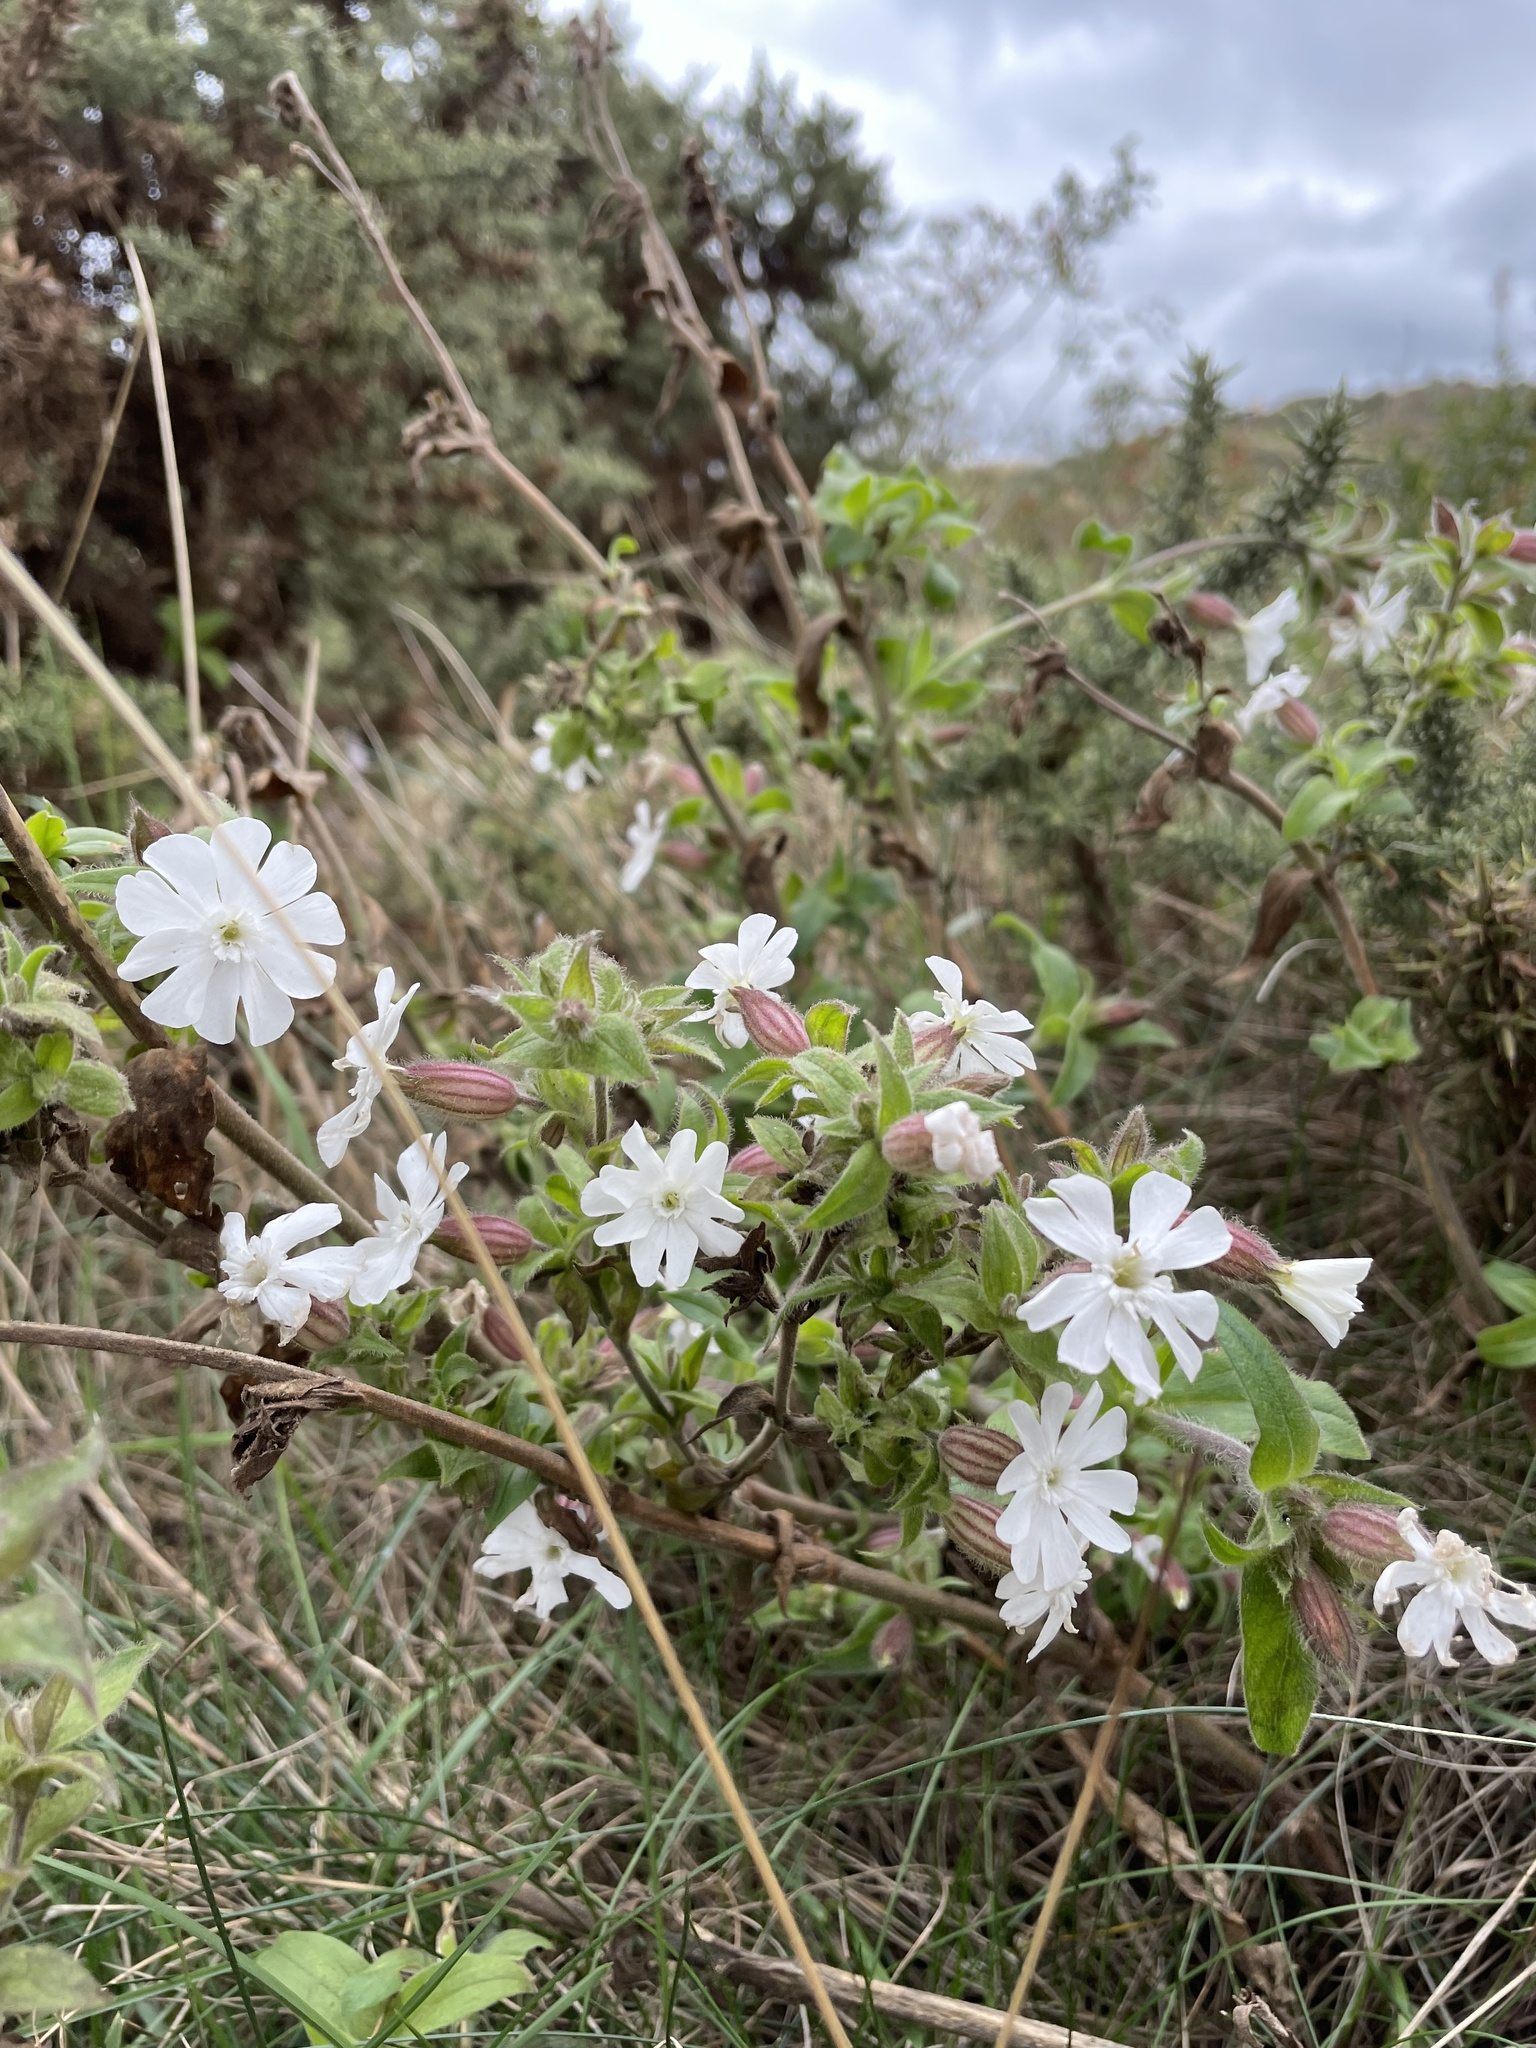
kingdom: Plantae
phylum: Tracheophyta
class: Magnoliopsida
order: Caryophyllales
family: Caryophyllaceae
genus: Silene
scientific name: Silene latifolia
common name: White campion
